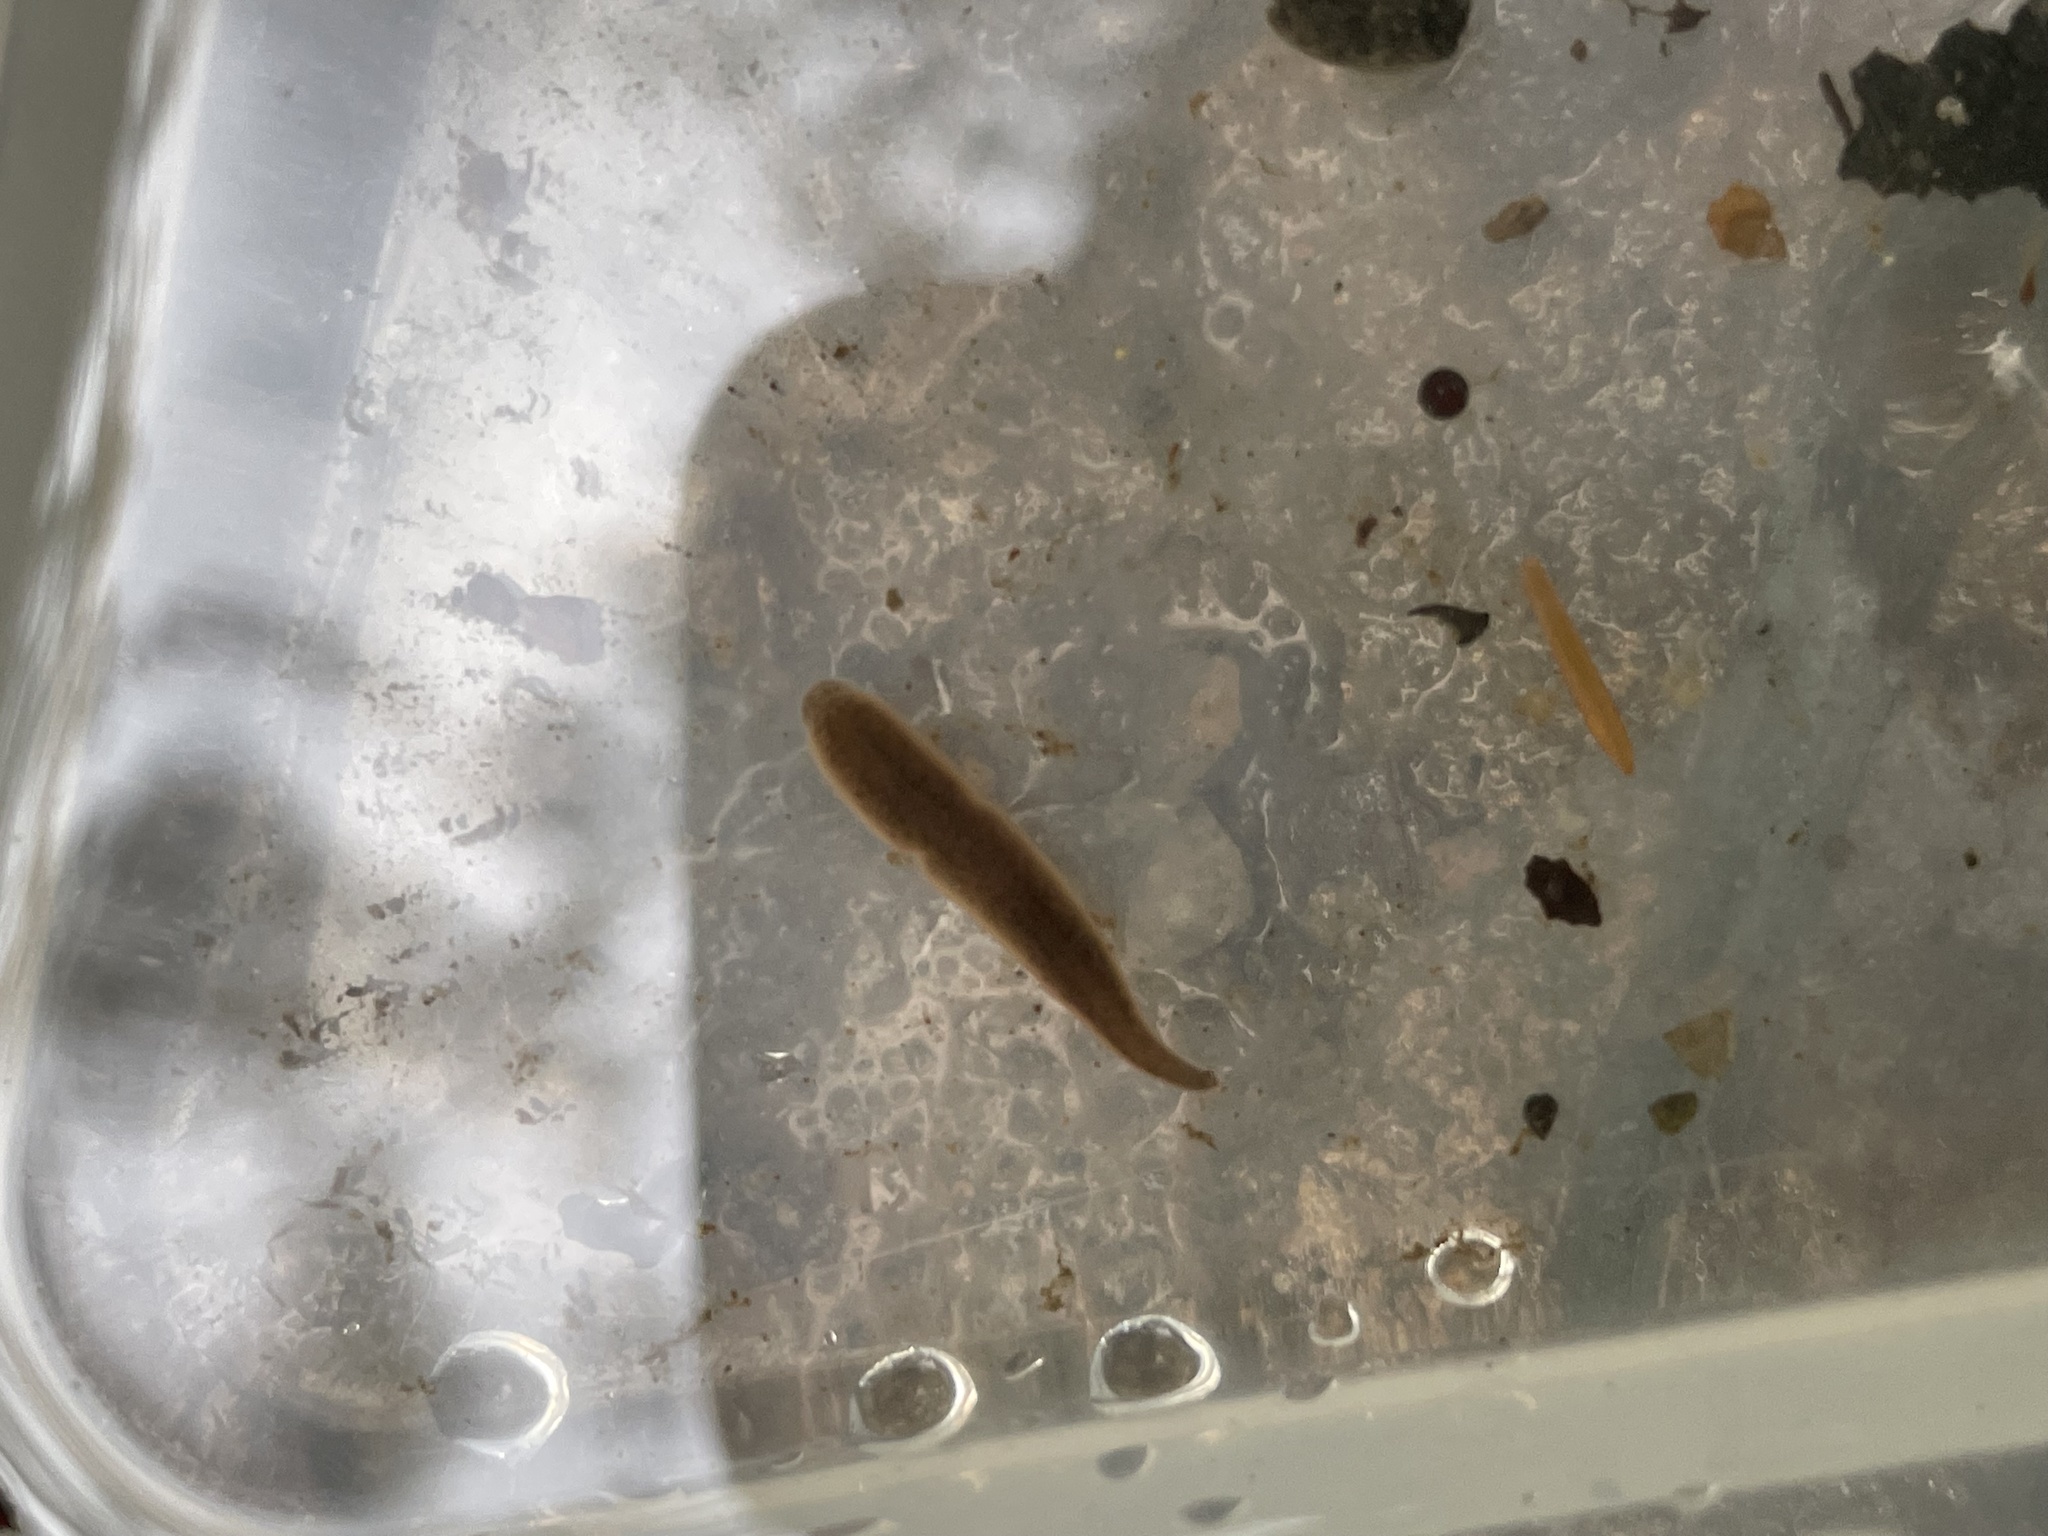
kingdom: Animalia
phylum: Annelida
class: Clitellata
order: Arhynchobdellida
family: Erpobdellidae
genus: Erpobdella
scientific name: Erpobdella octoculata
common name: Leeches
